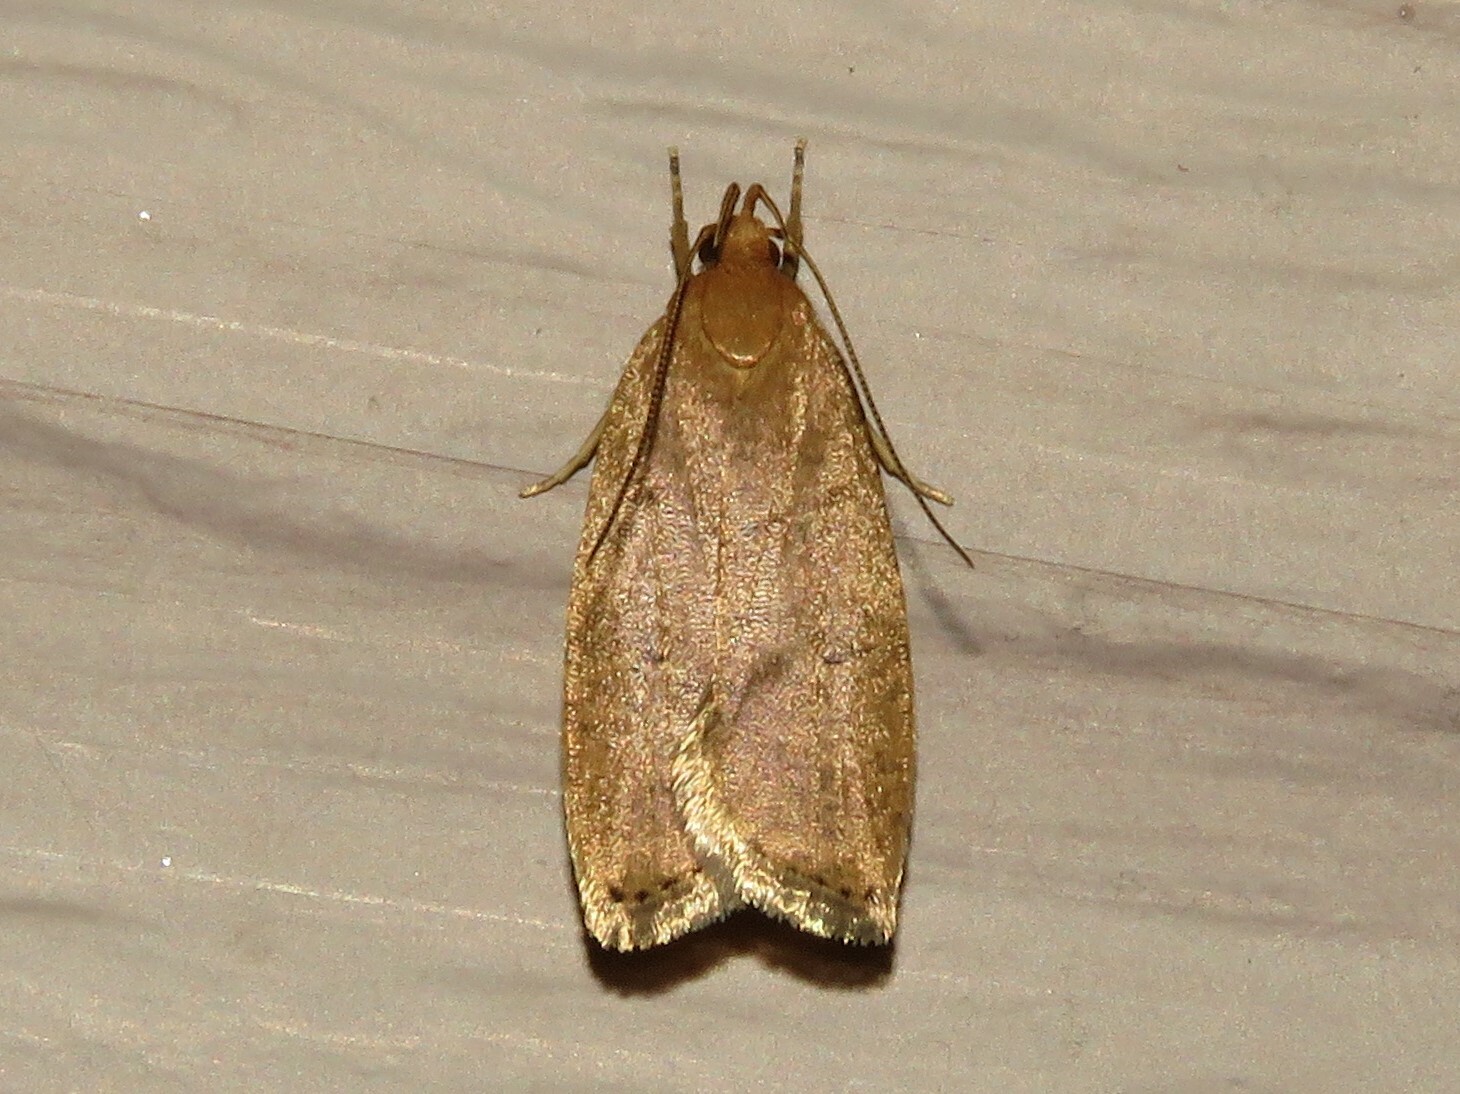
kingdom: Animalia
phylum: Arthropoda
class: Insecta
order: Lepidoptera
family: Depressariidae
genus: Psilocorsis
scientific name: Psilocorsis reflexella
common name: Dotted leaftier moth
